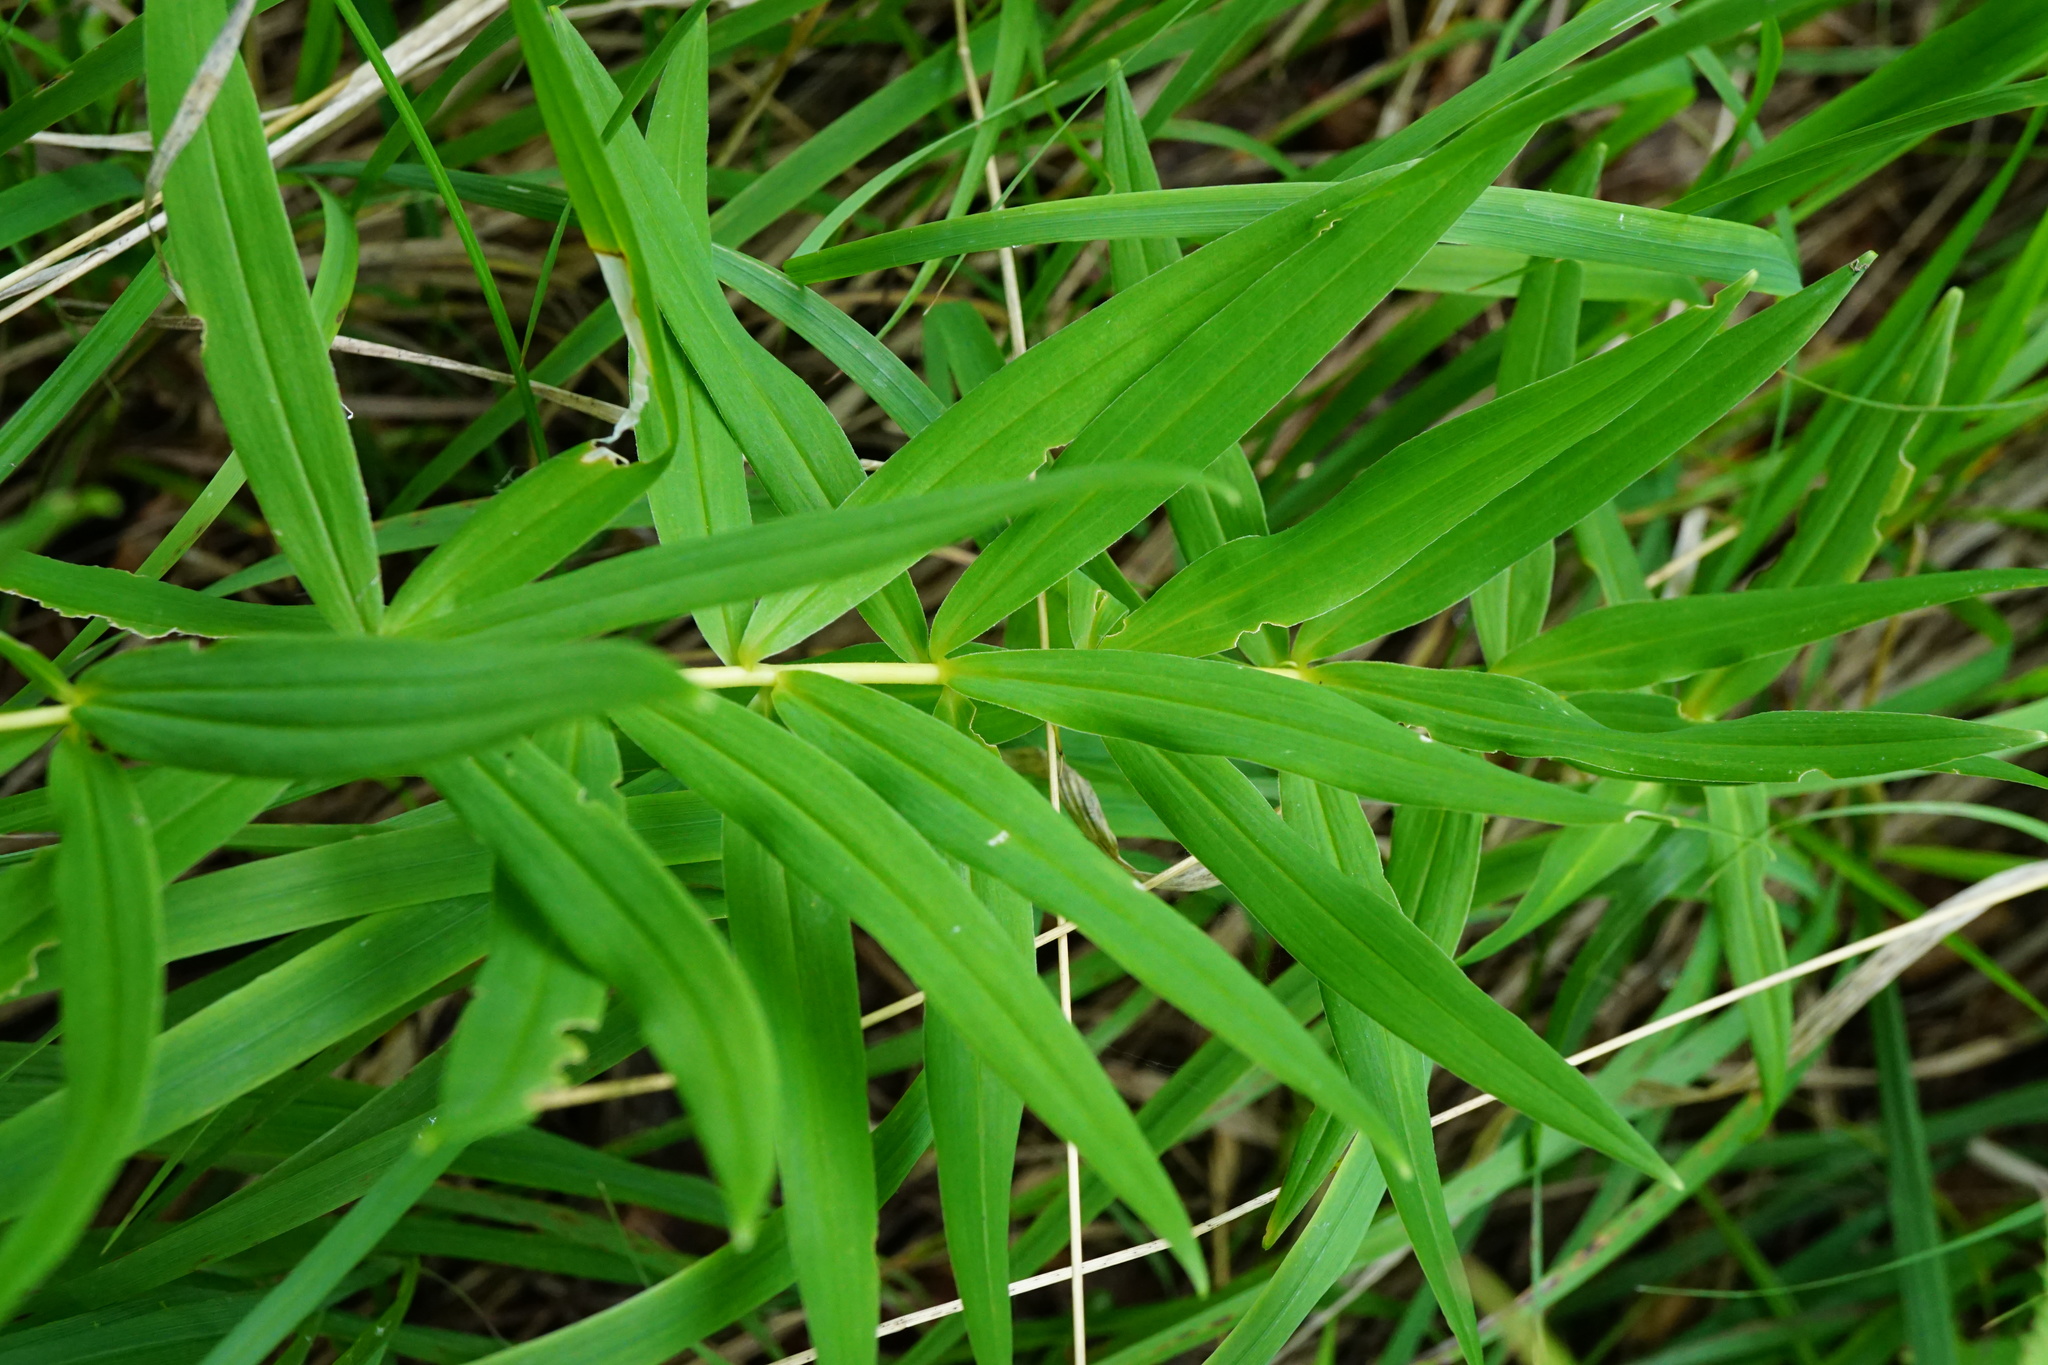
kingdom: Plantae
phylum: Tracheophyta
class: Liliopsida
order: Asparagales
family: Asparagaceae
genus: Polygonatum
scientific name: Polygonatum verticillatum
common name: Whorled solomon's-seal
